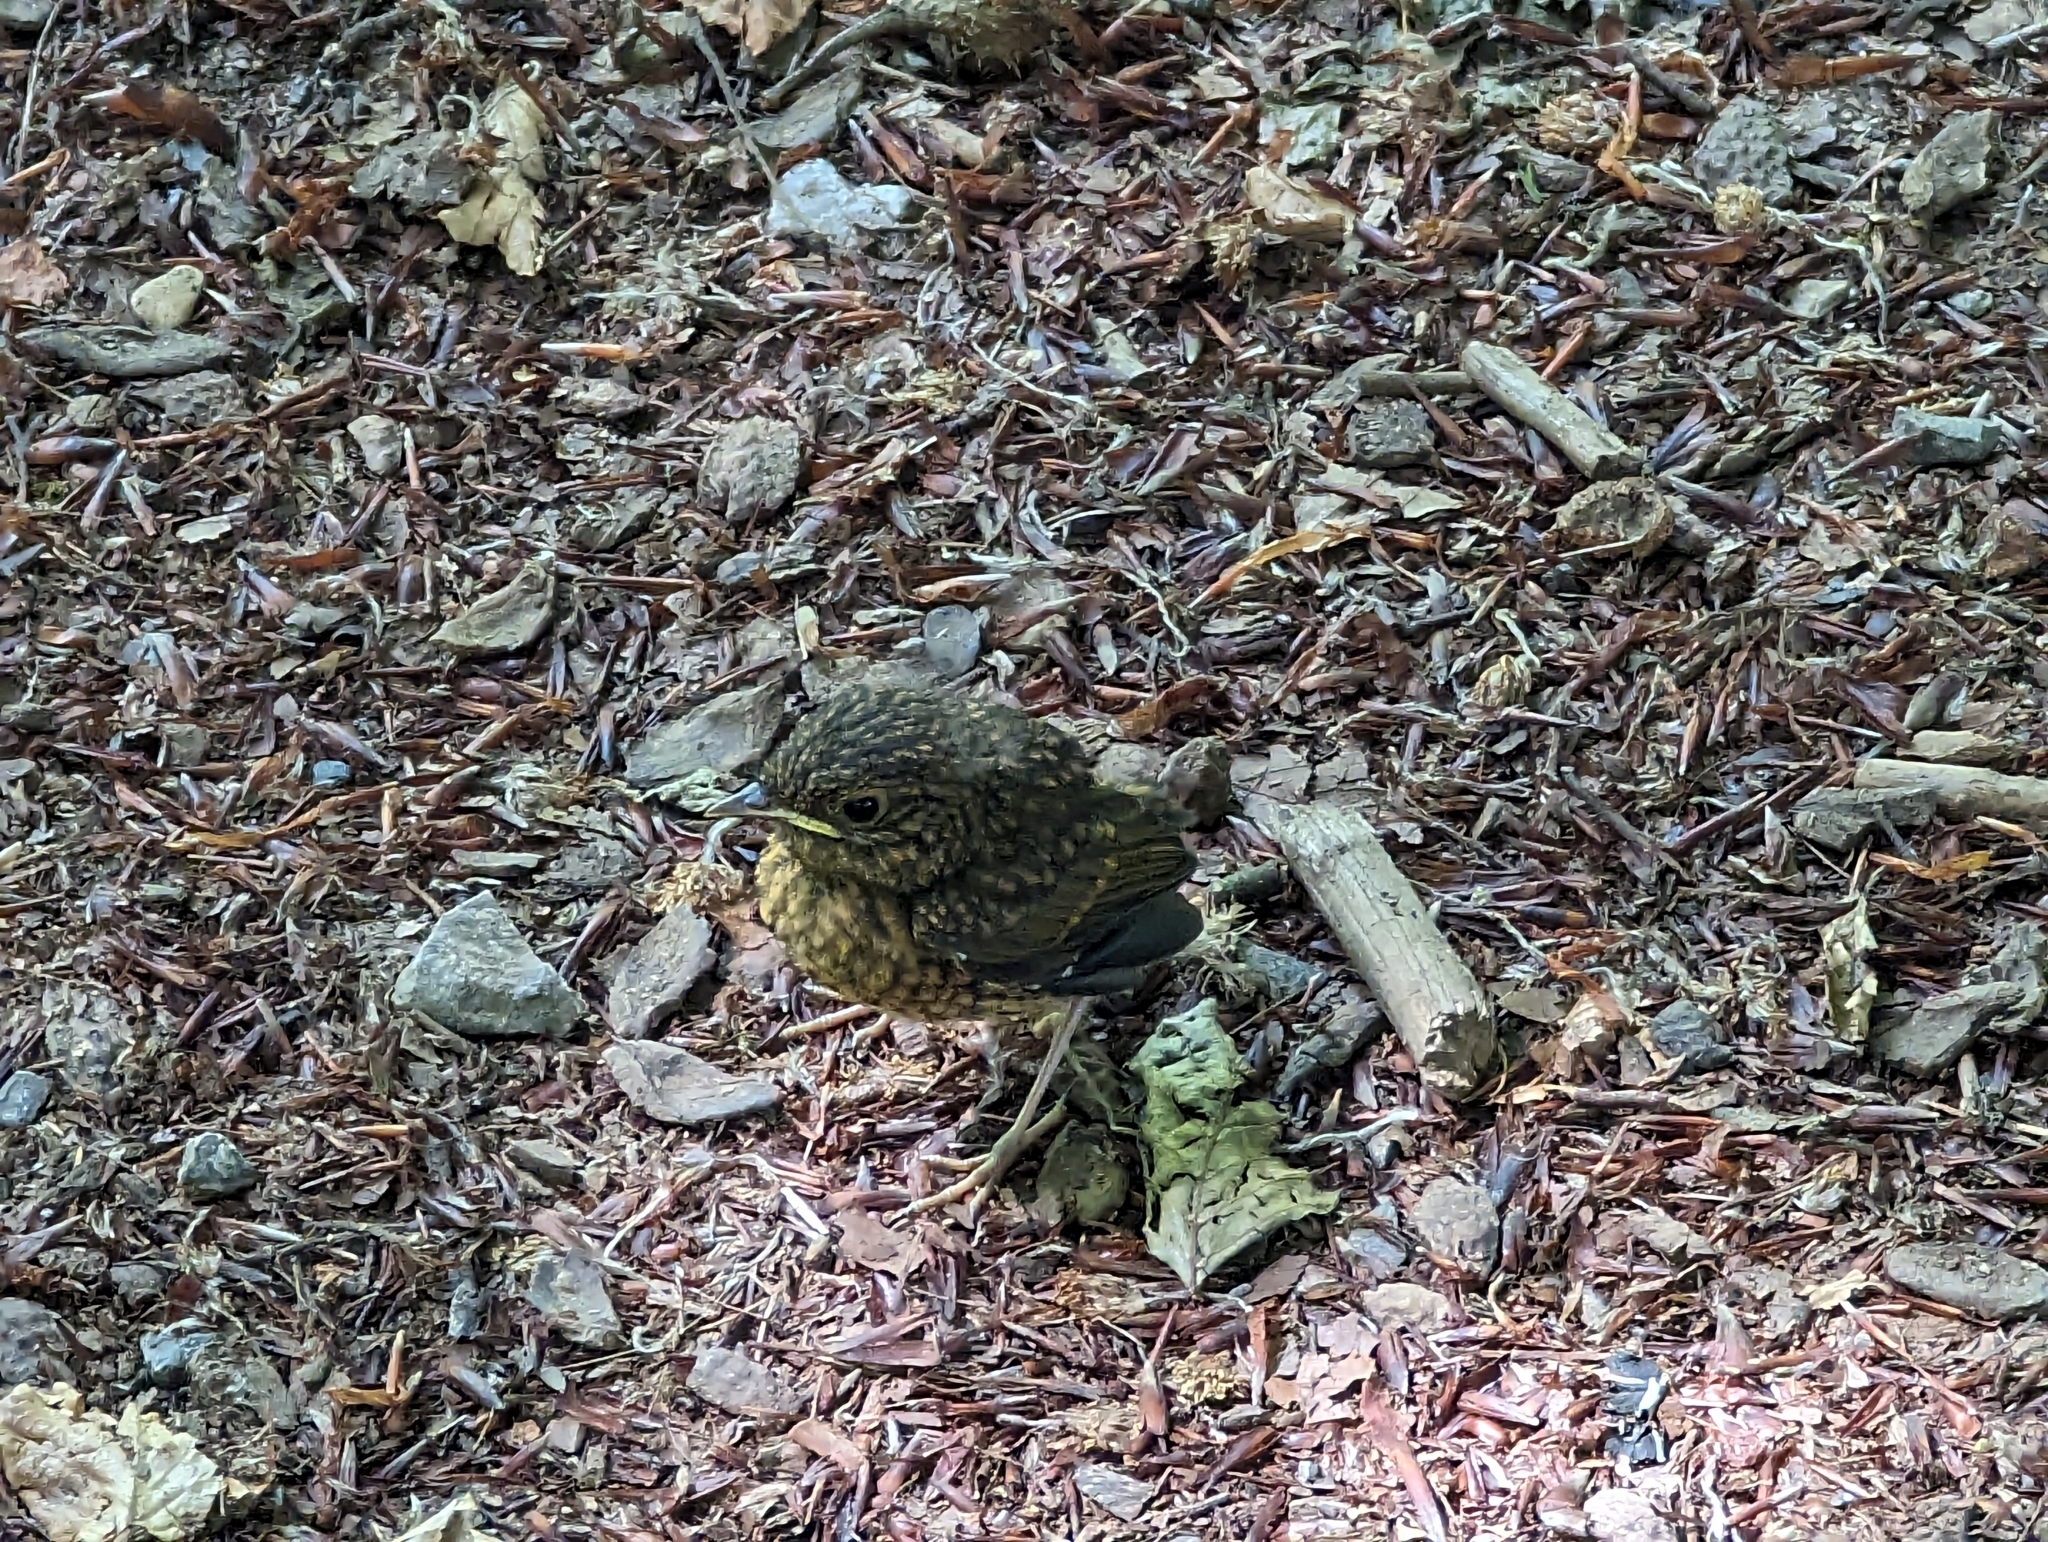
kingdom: Animalia
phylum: Chordata
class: Aves
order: Passeriformes
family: Muscicapidae
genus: Erithacus
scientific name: Erithacus rubecula
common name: European robin
